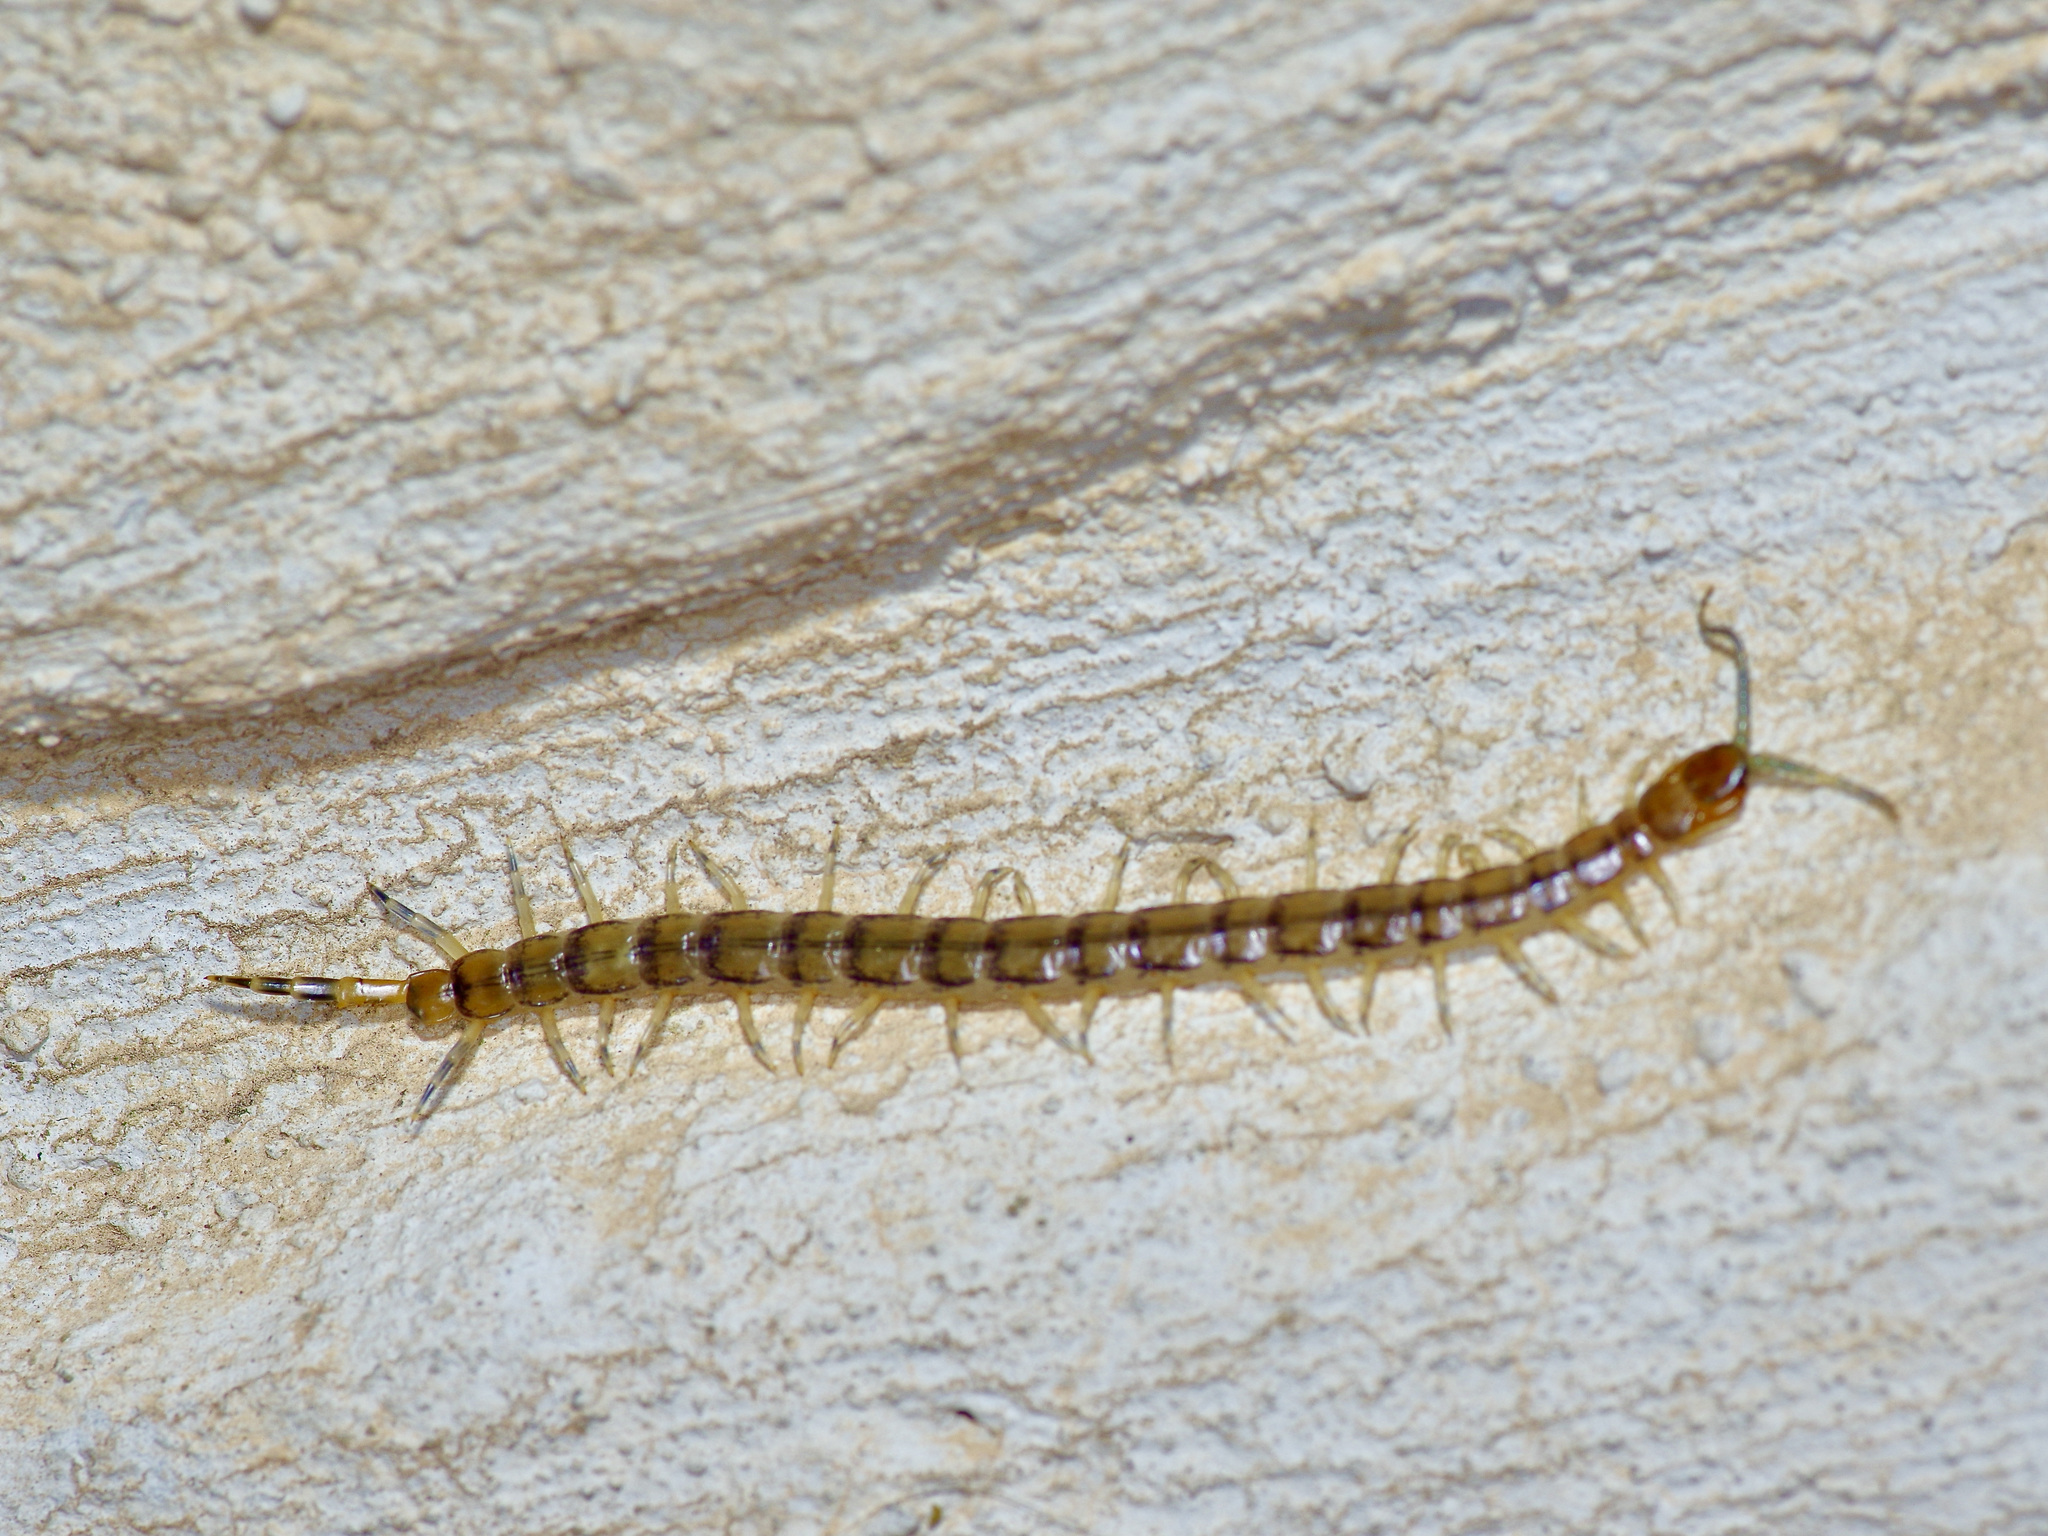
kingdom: Animalia
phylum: Arthropoda
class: Chilopoda
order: Scolopendromorpha
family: Scolopendridae
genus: Hemiscolopendra
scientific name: Hemiscolopendra marginata
